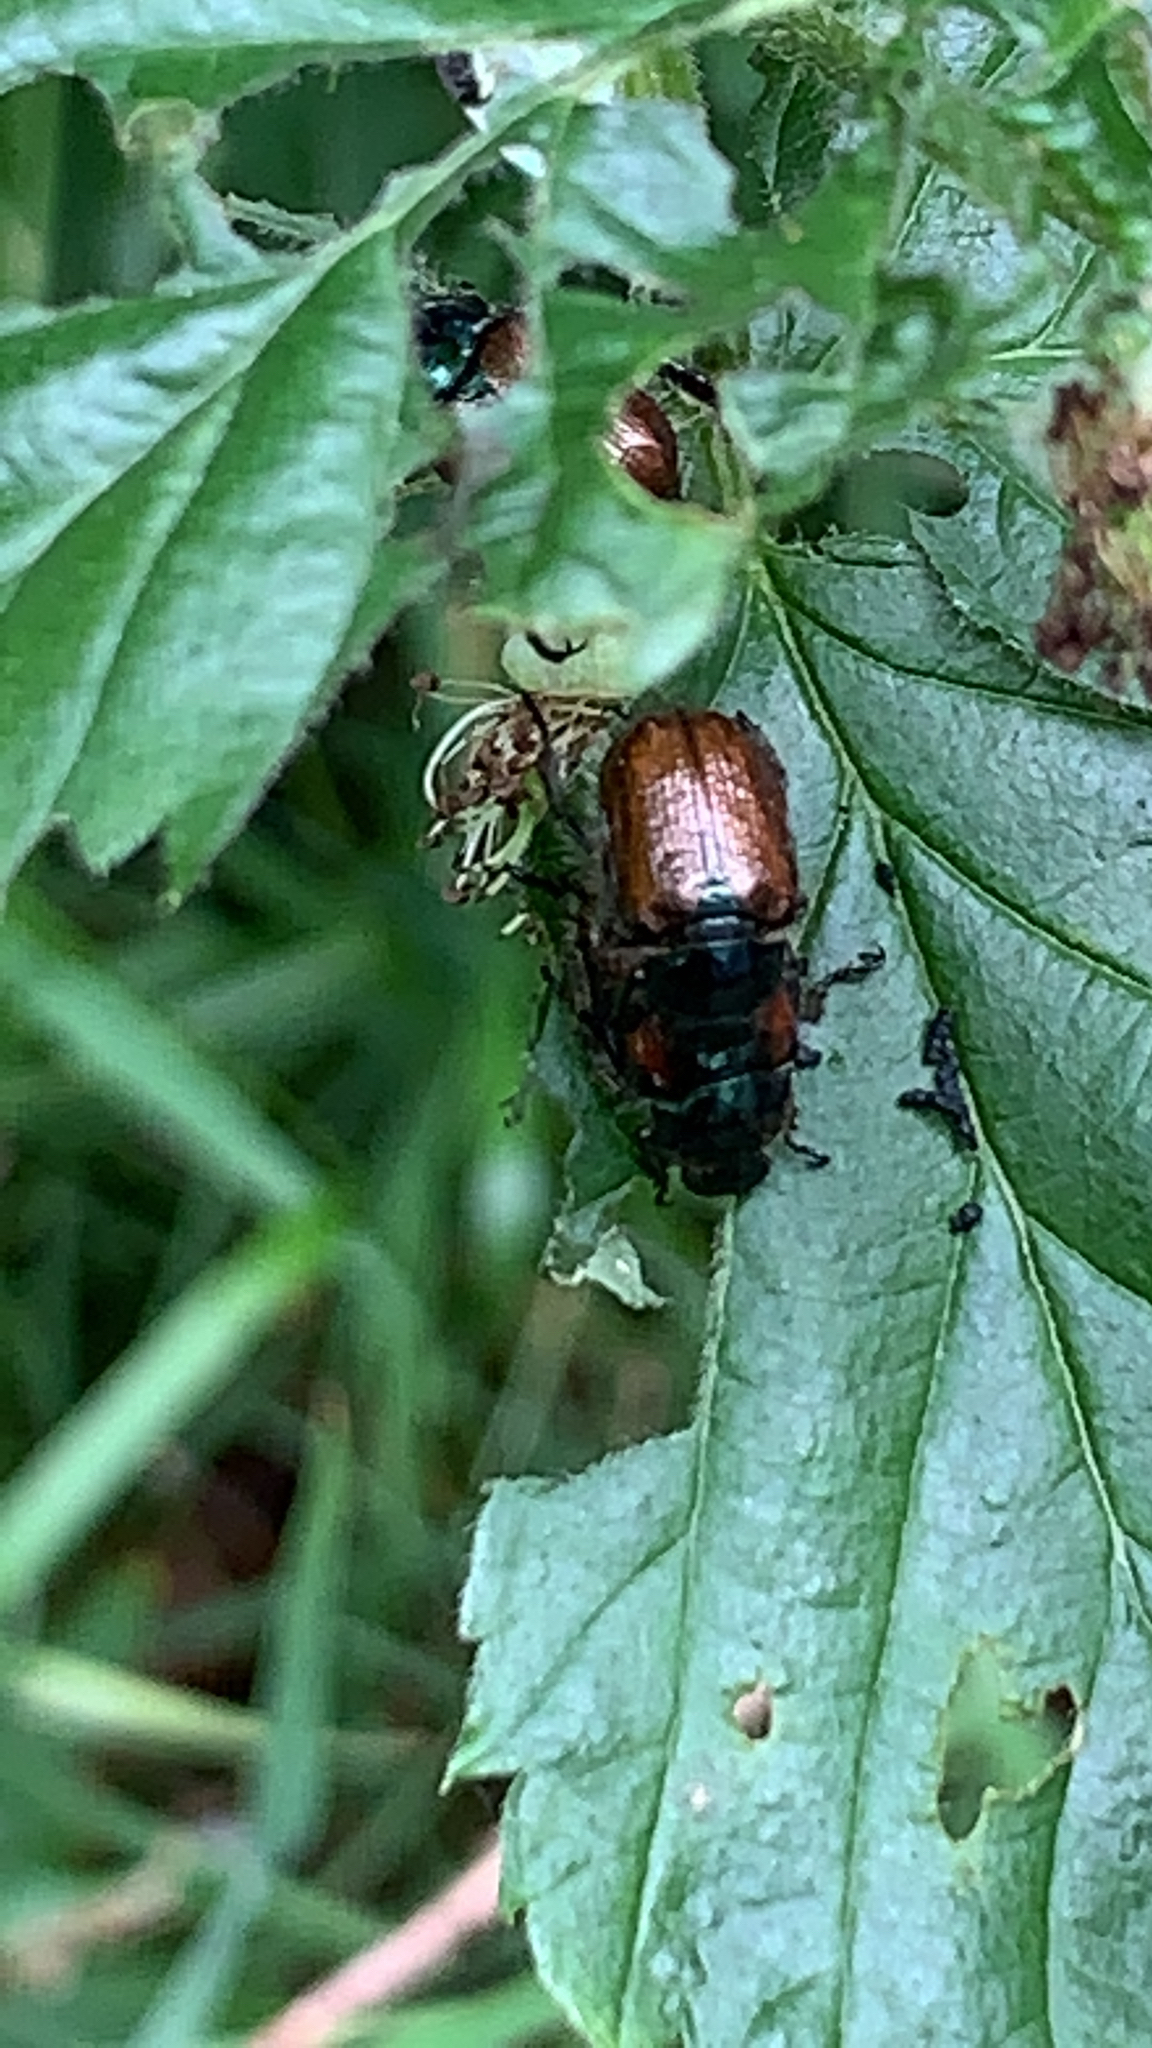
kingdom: Animalia
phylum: Arthropoda
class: Insecta
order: Coleoptera
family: Scarabaeidae
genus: Phyllopertha
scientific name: Phyllopertha horticola
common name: Garden chafer
